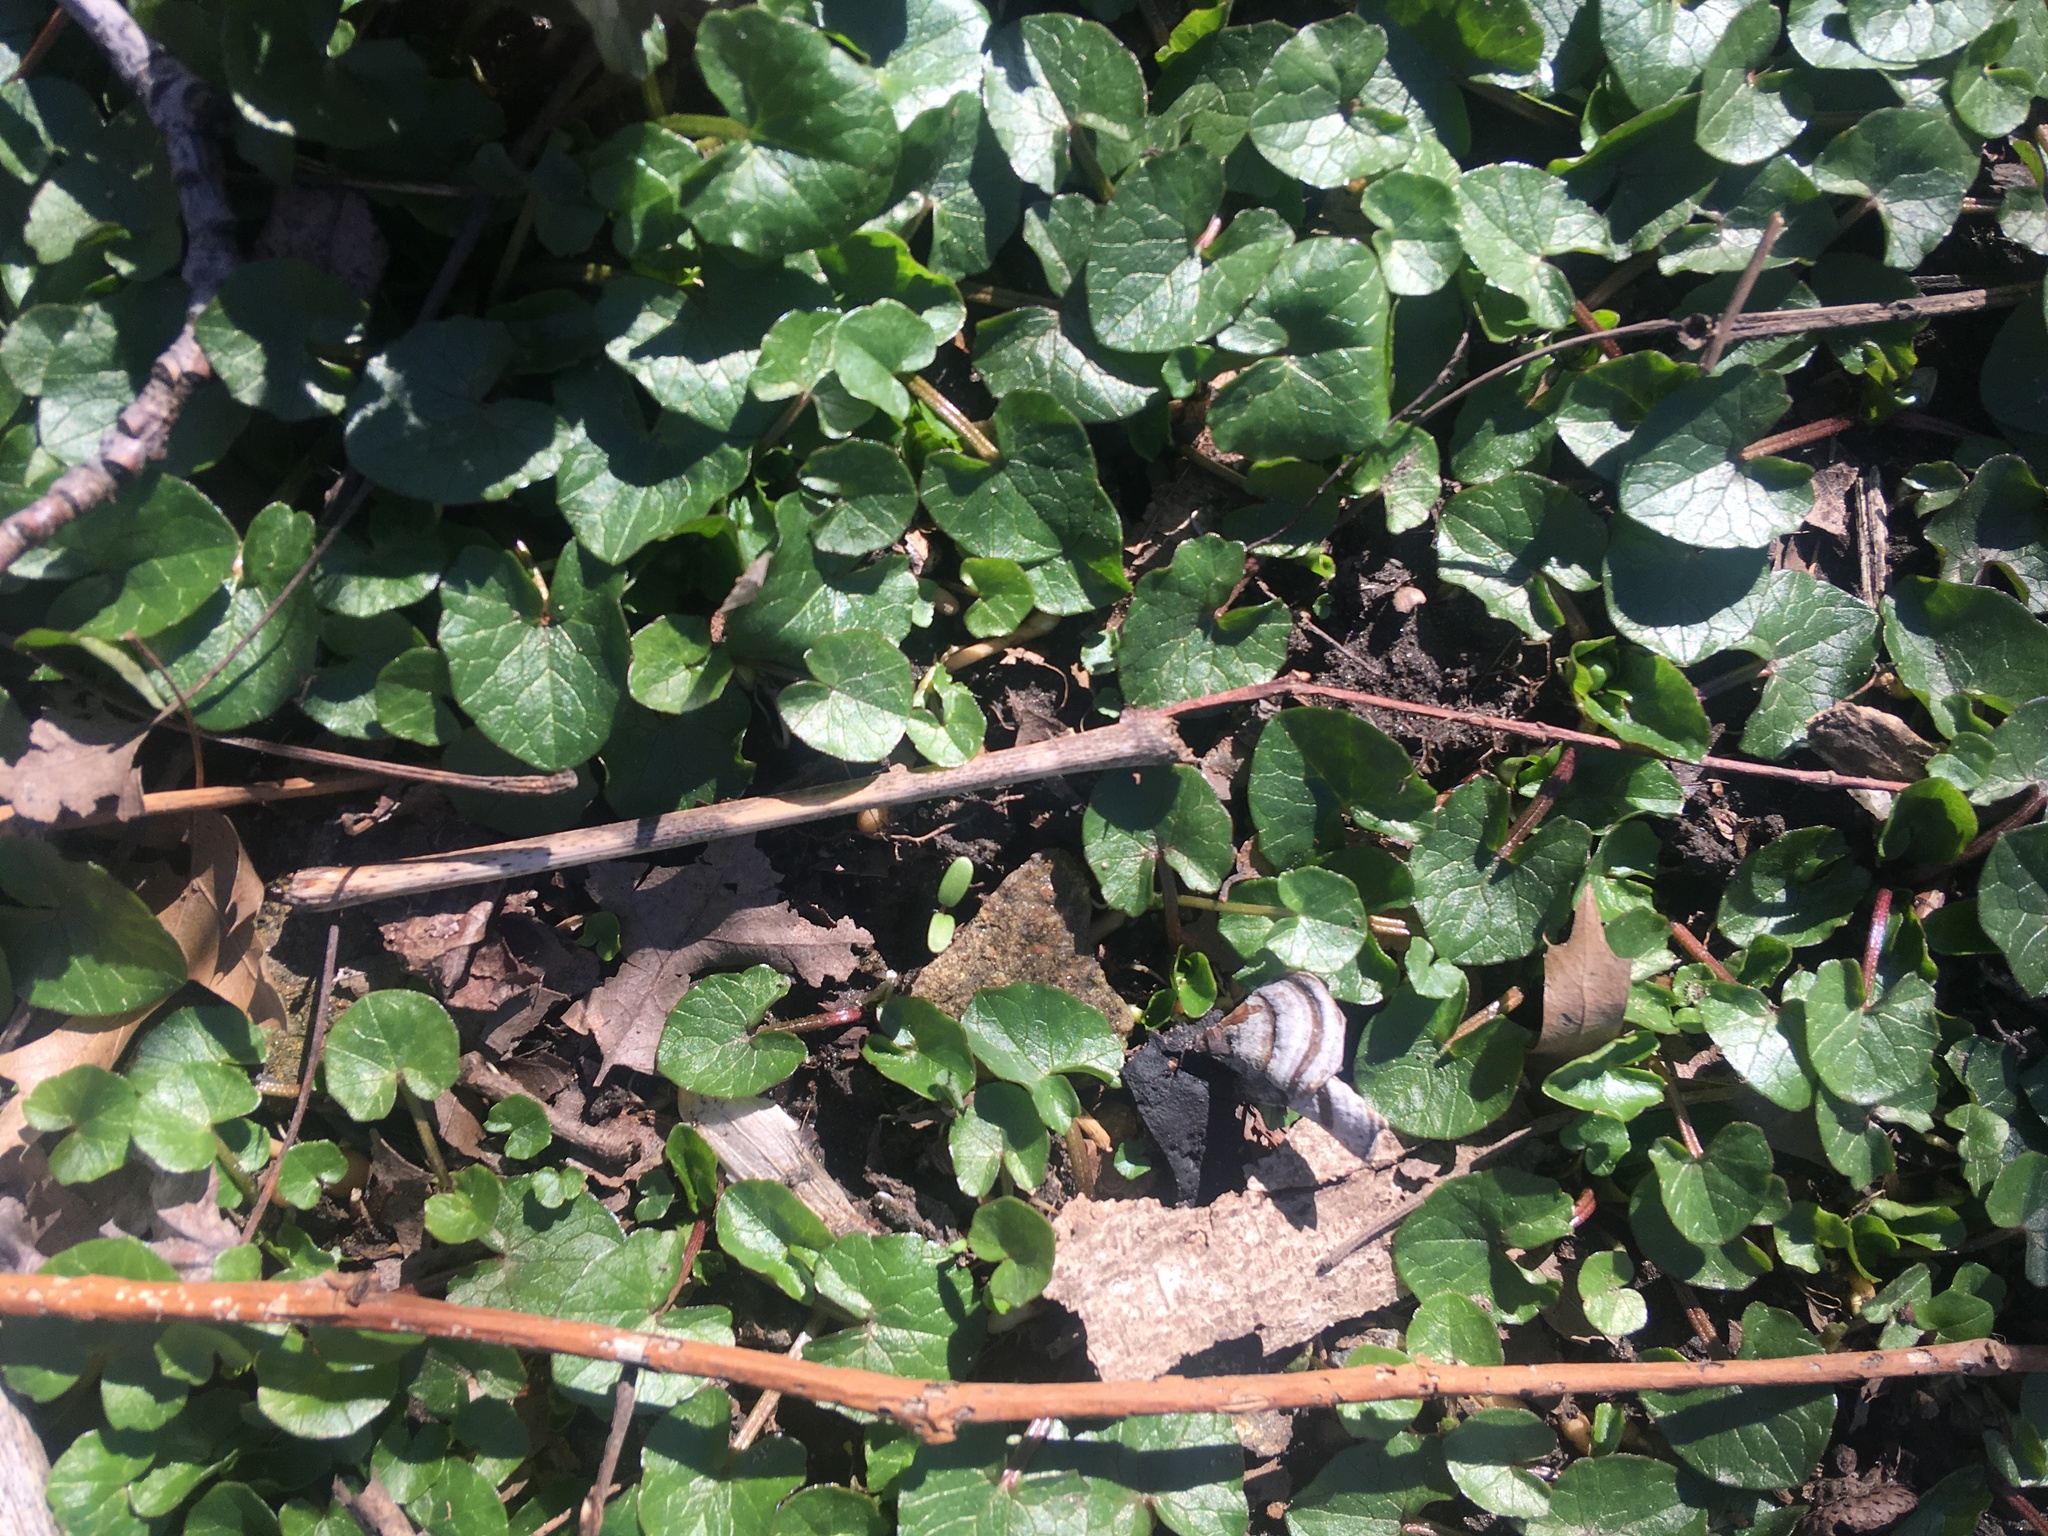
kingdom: Plantae
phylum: Tracheophyta
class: Magnoliopsida
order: Ranunculales
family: Ranunculaceae
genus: Ficaria
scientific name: Ficaria verna
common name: Lesser celandine
